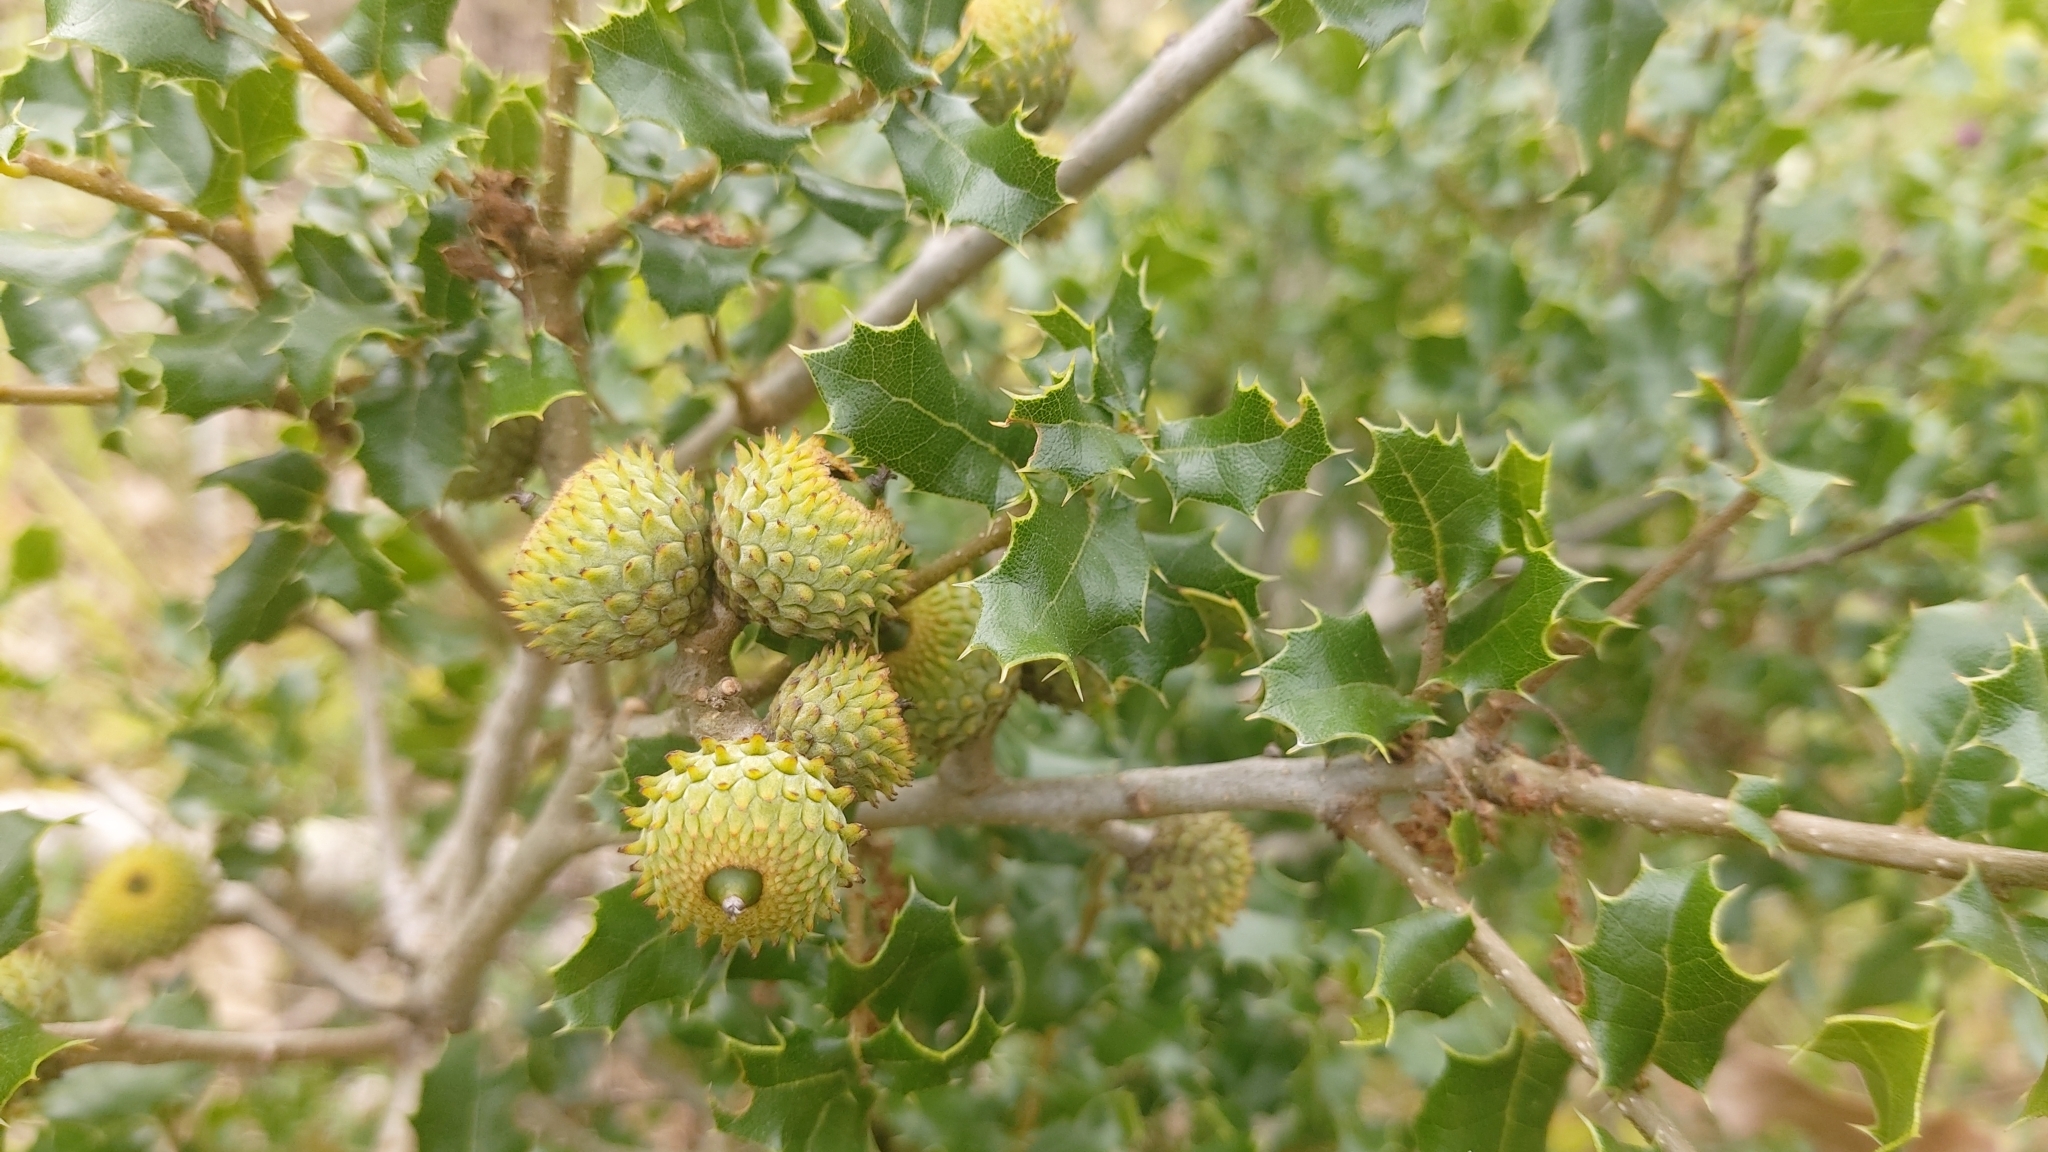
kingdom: Plantae
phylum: Tracheophyta
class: Magnoliopsida
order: Fagales
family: Fagaceae
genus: Quercus
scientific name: Quercus coccifera
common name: Kermes oak
